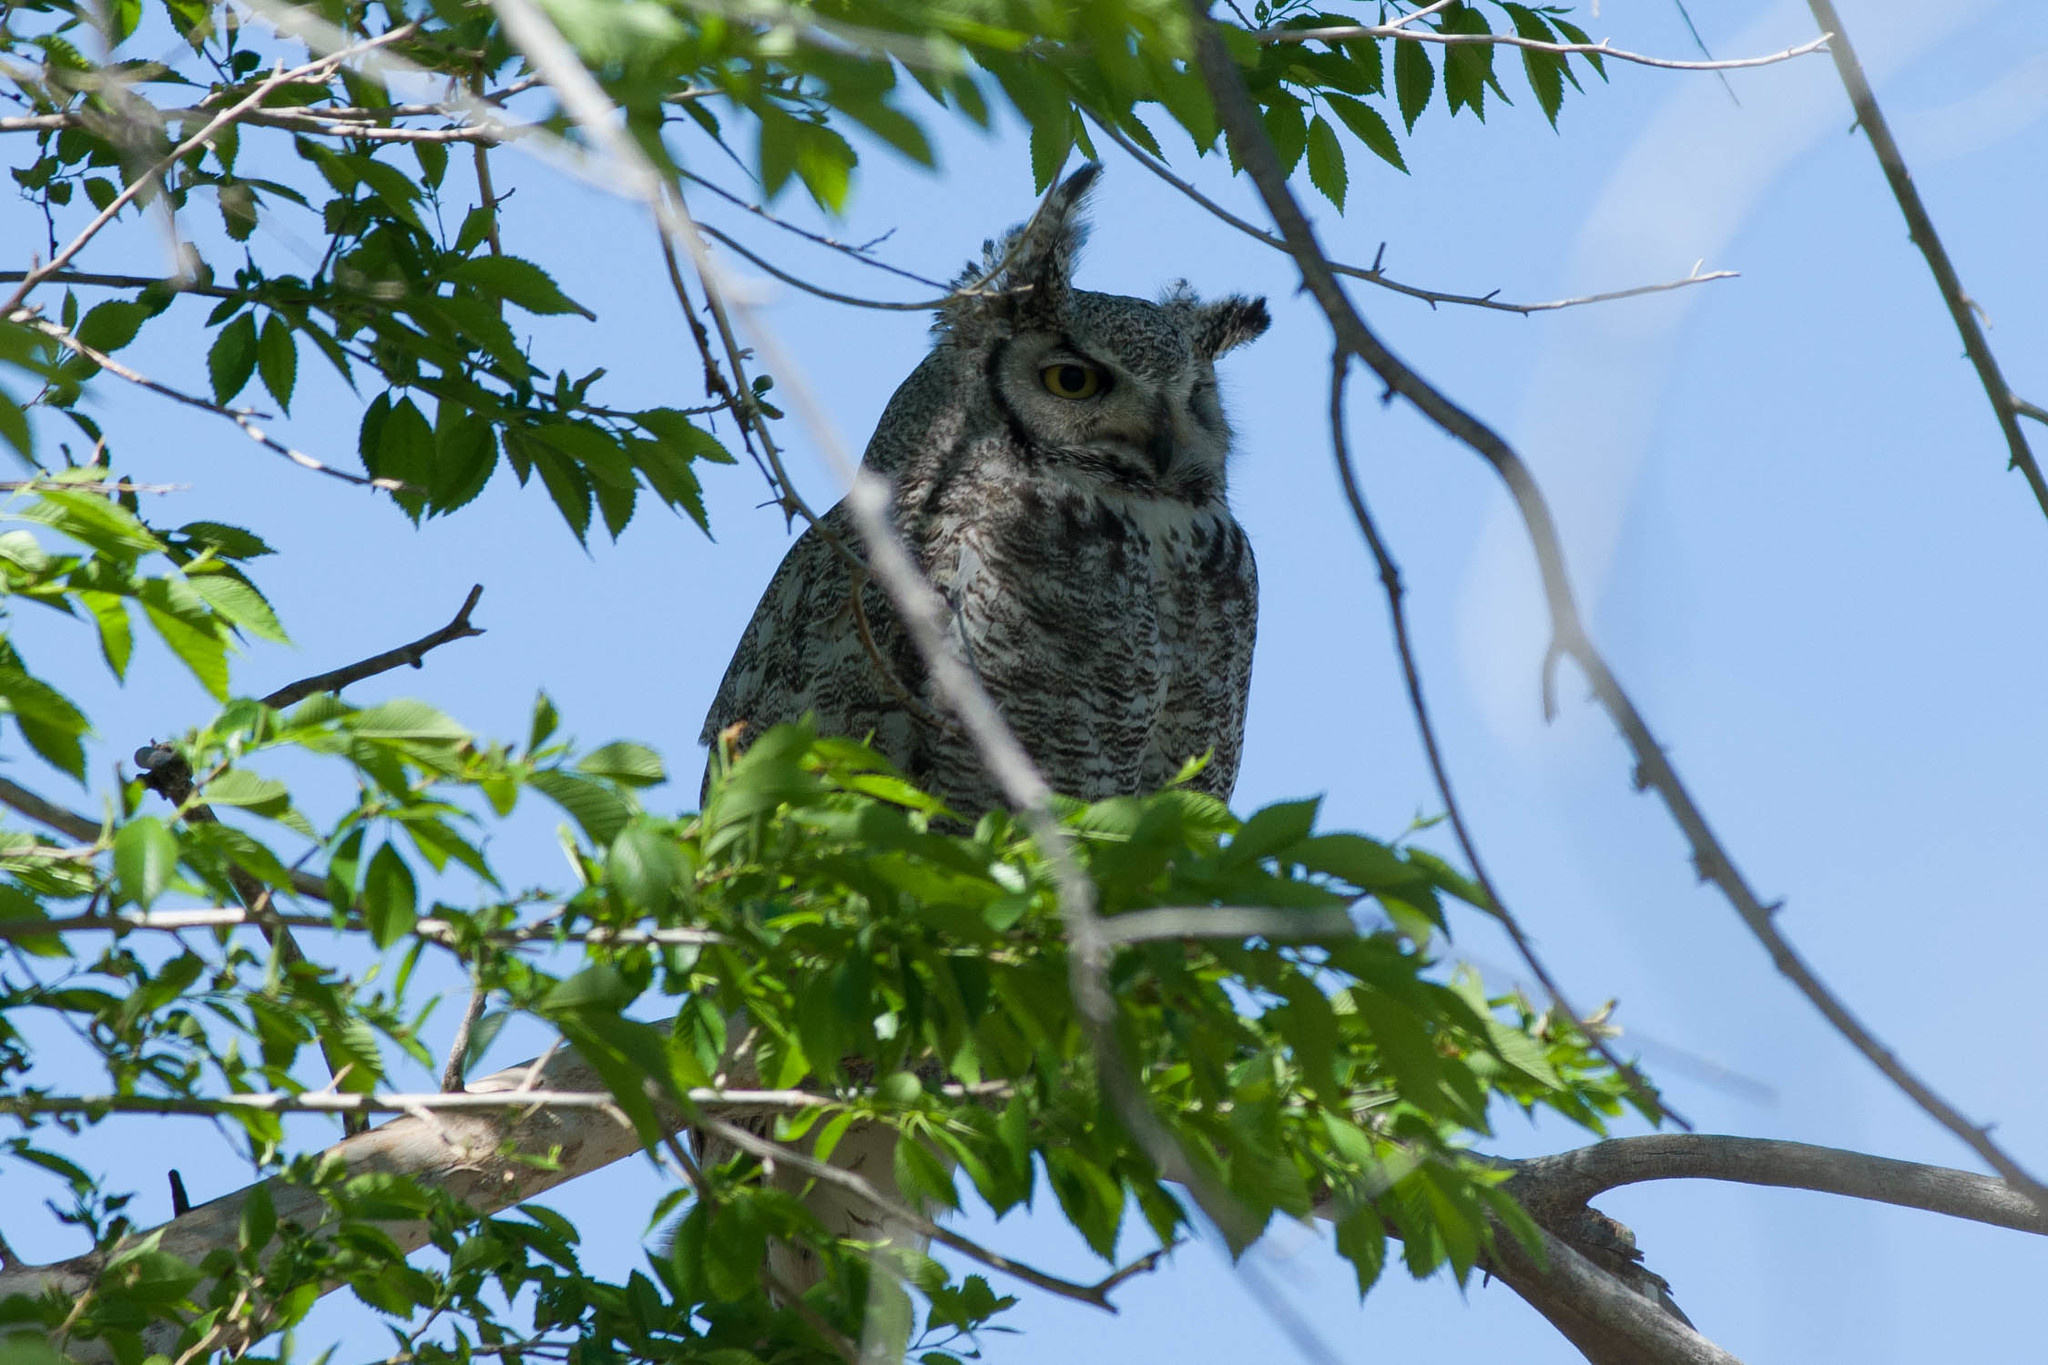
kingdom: Animalia
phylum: Chordata
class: Aves
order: Strigiformes
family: Strigidae
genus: Bubo
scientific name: Bubo virginianus
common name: Great horned owl
